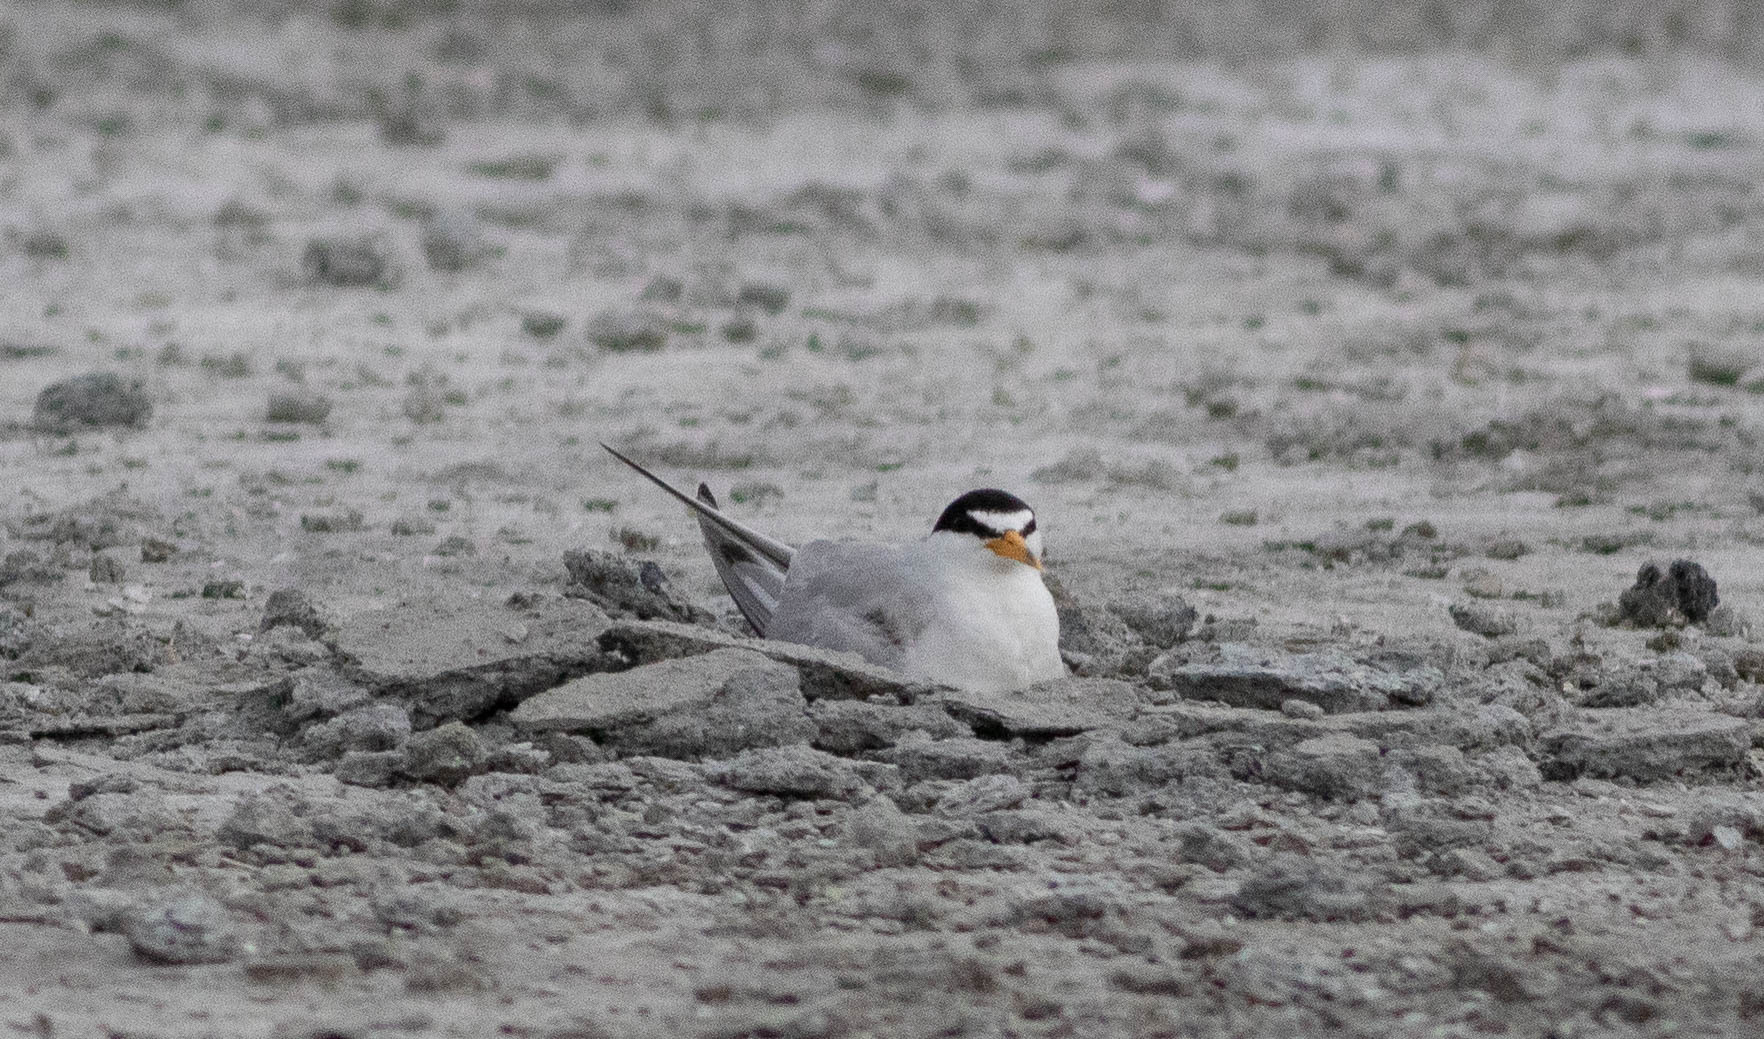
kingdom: Animalia
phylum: Chordata
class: Aves
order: Charadriiformes
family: Laridae
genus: Sternula
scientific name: Sternula antillarum
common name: Least tern
